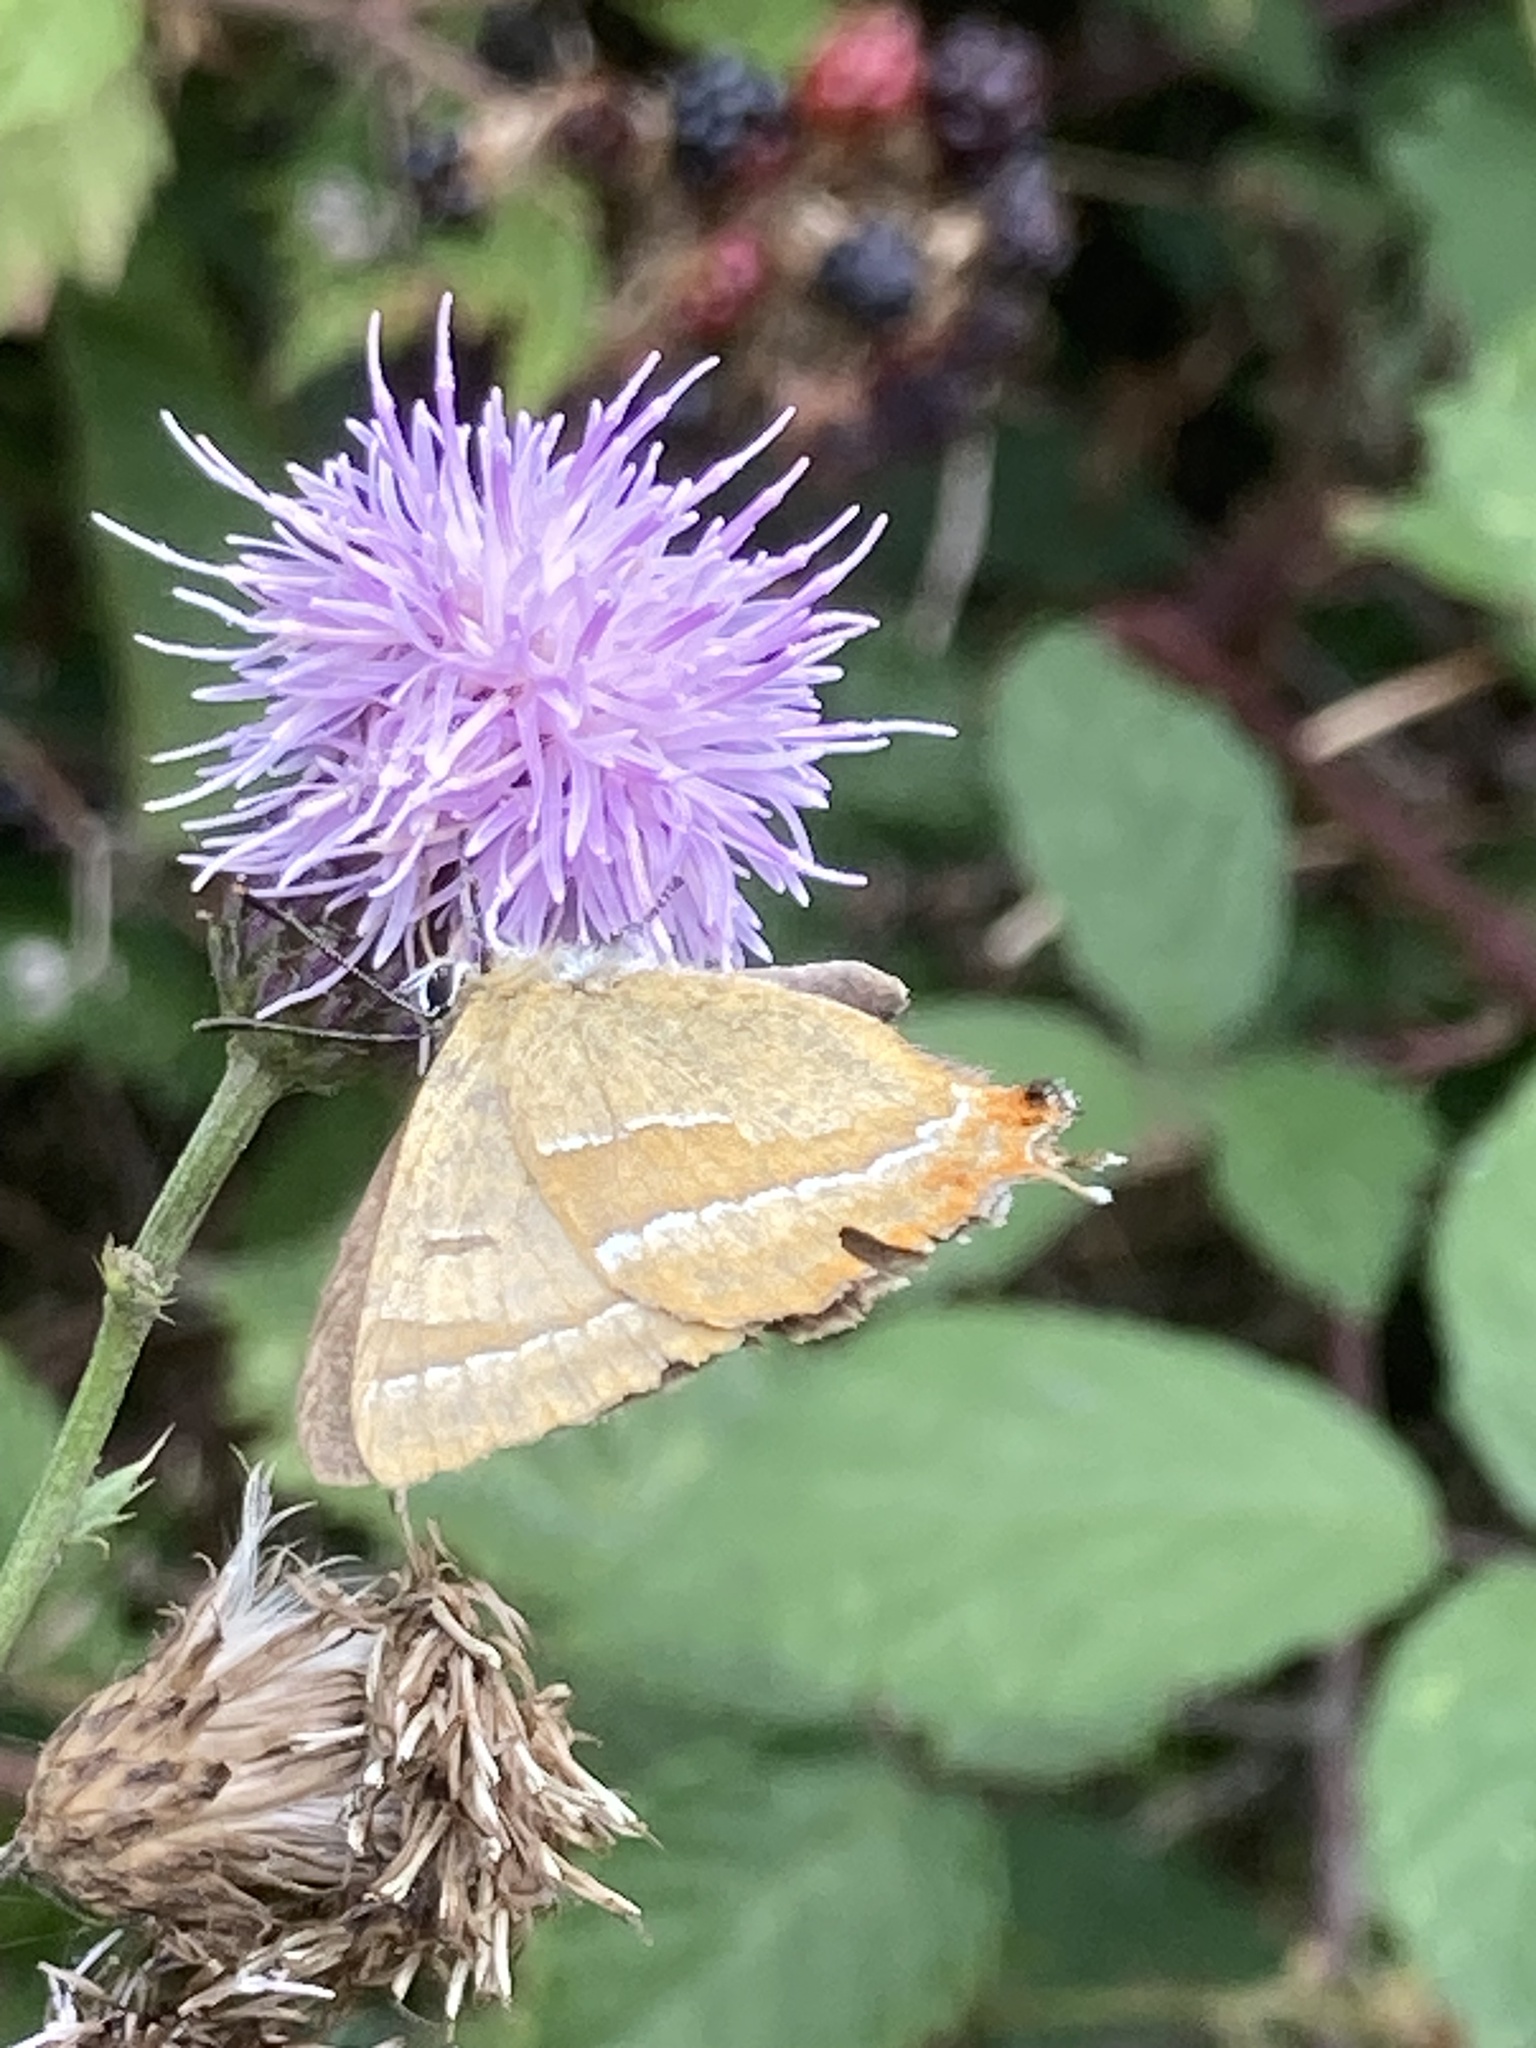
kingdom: Animalia
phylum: Arthropoda
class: Insecta
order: Lepidoptera
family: Lycaenidae
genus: Thecla
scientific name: Thecla betulae
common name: Brown hairstreak
